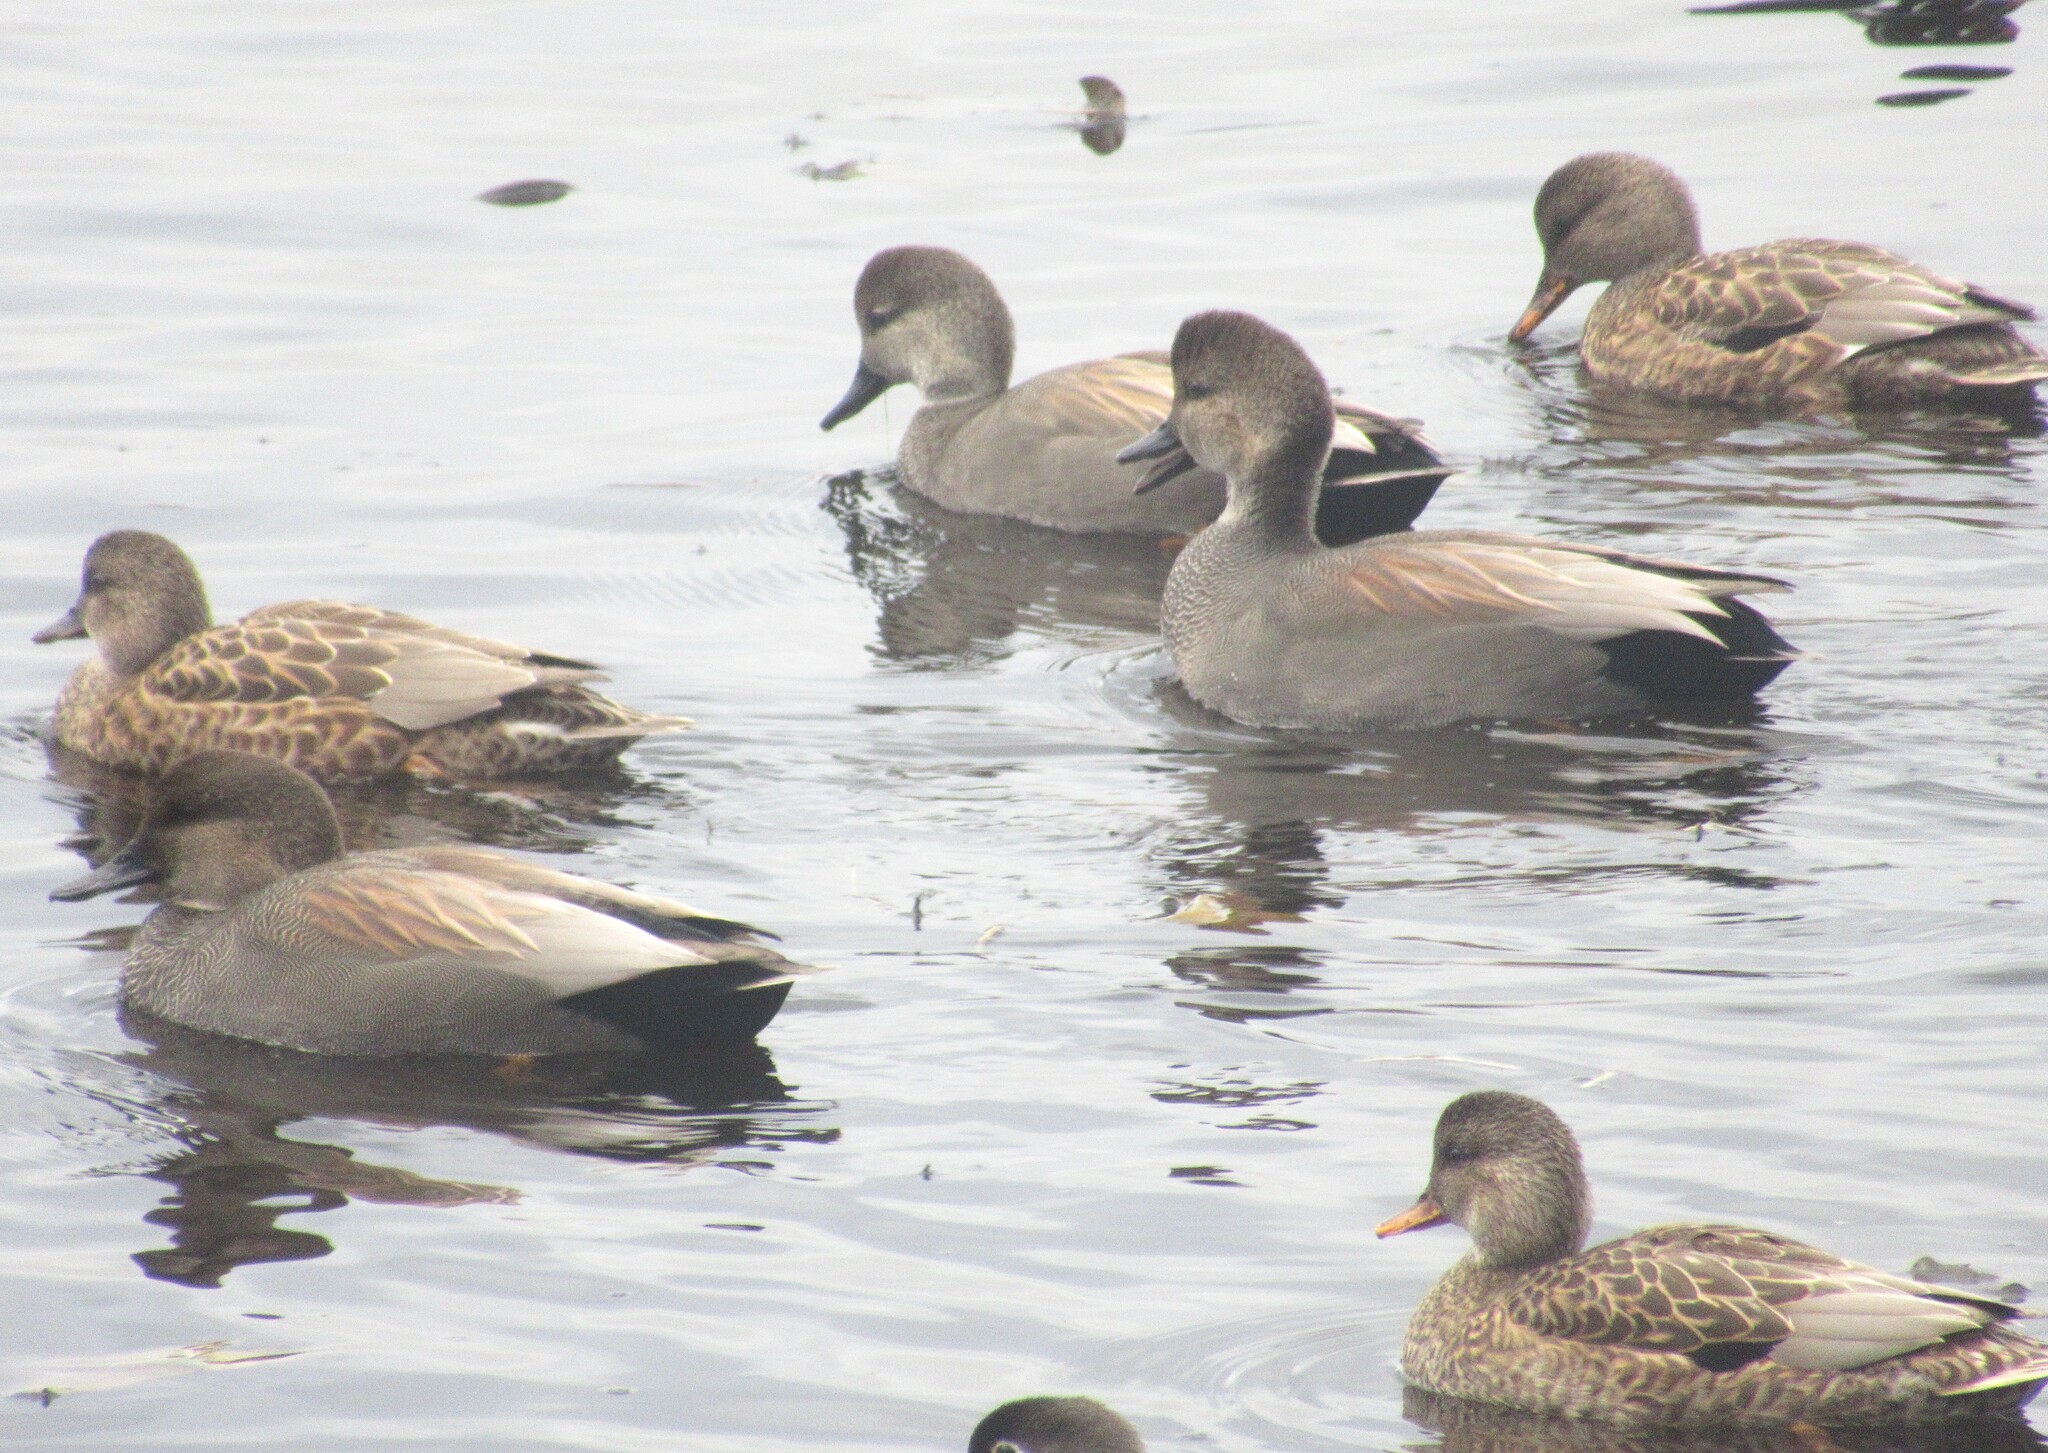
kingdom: Animalia
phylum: Chordata
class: Aves
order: Anseriformes
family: Anatidae
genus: Mareca
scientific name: Mareca strepera
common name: Gadwall
